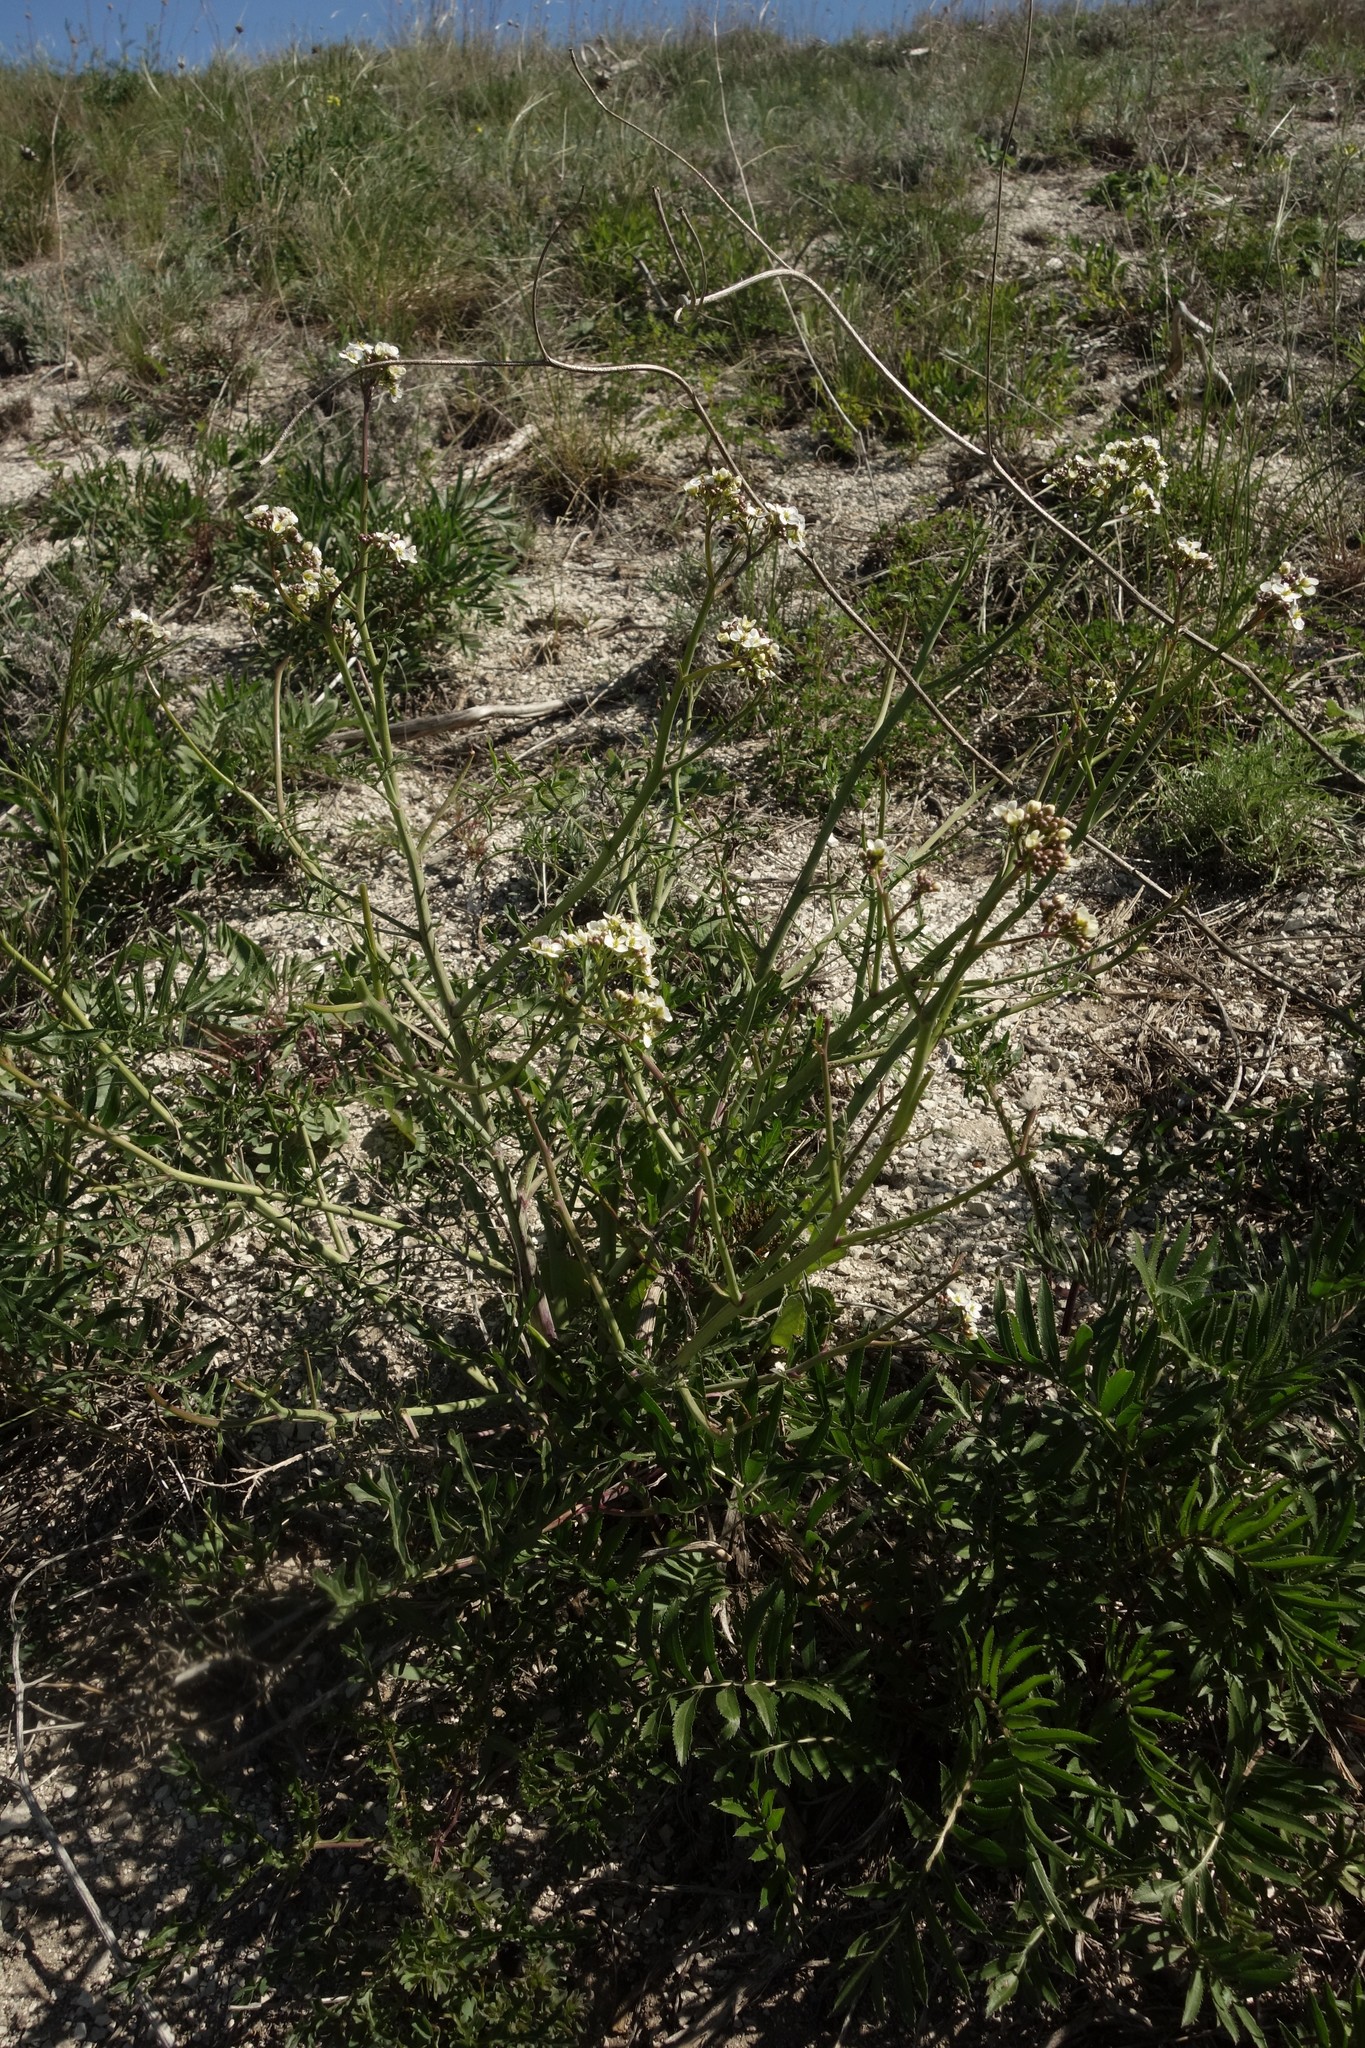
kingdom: Plantae
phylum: Tracheophyta
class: Magnoliopsida
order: Brassicales
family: Brassicaceae
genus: Crambe
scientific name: Crambe tataria
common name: Tartarian breadplant
